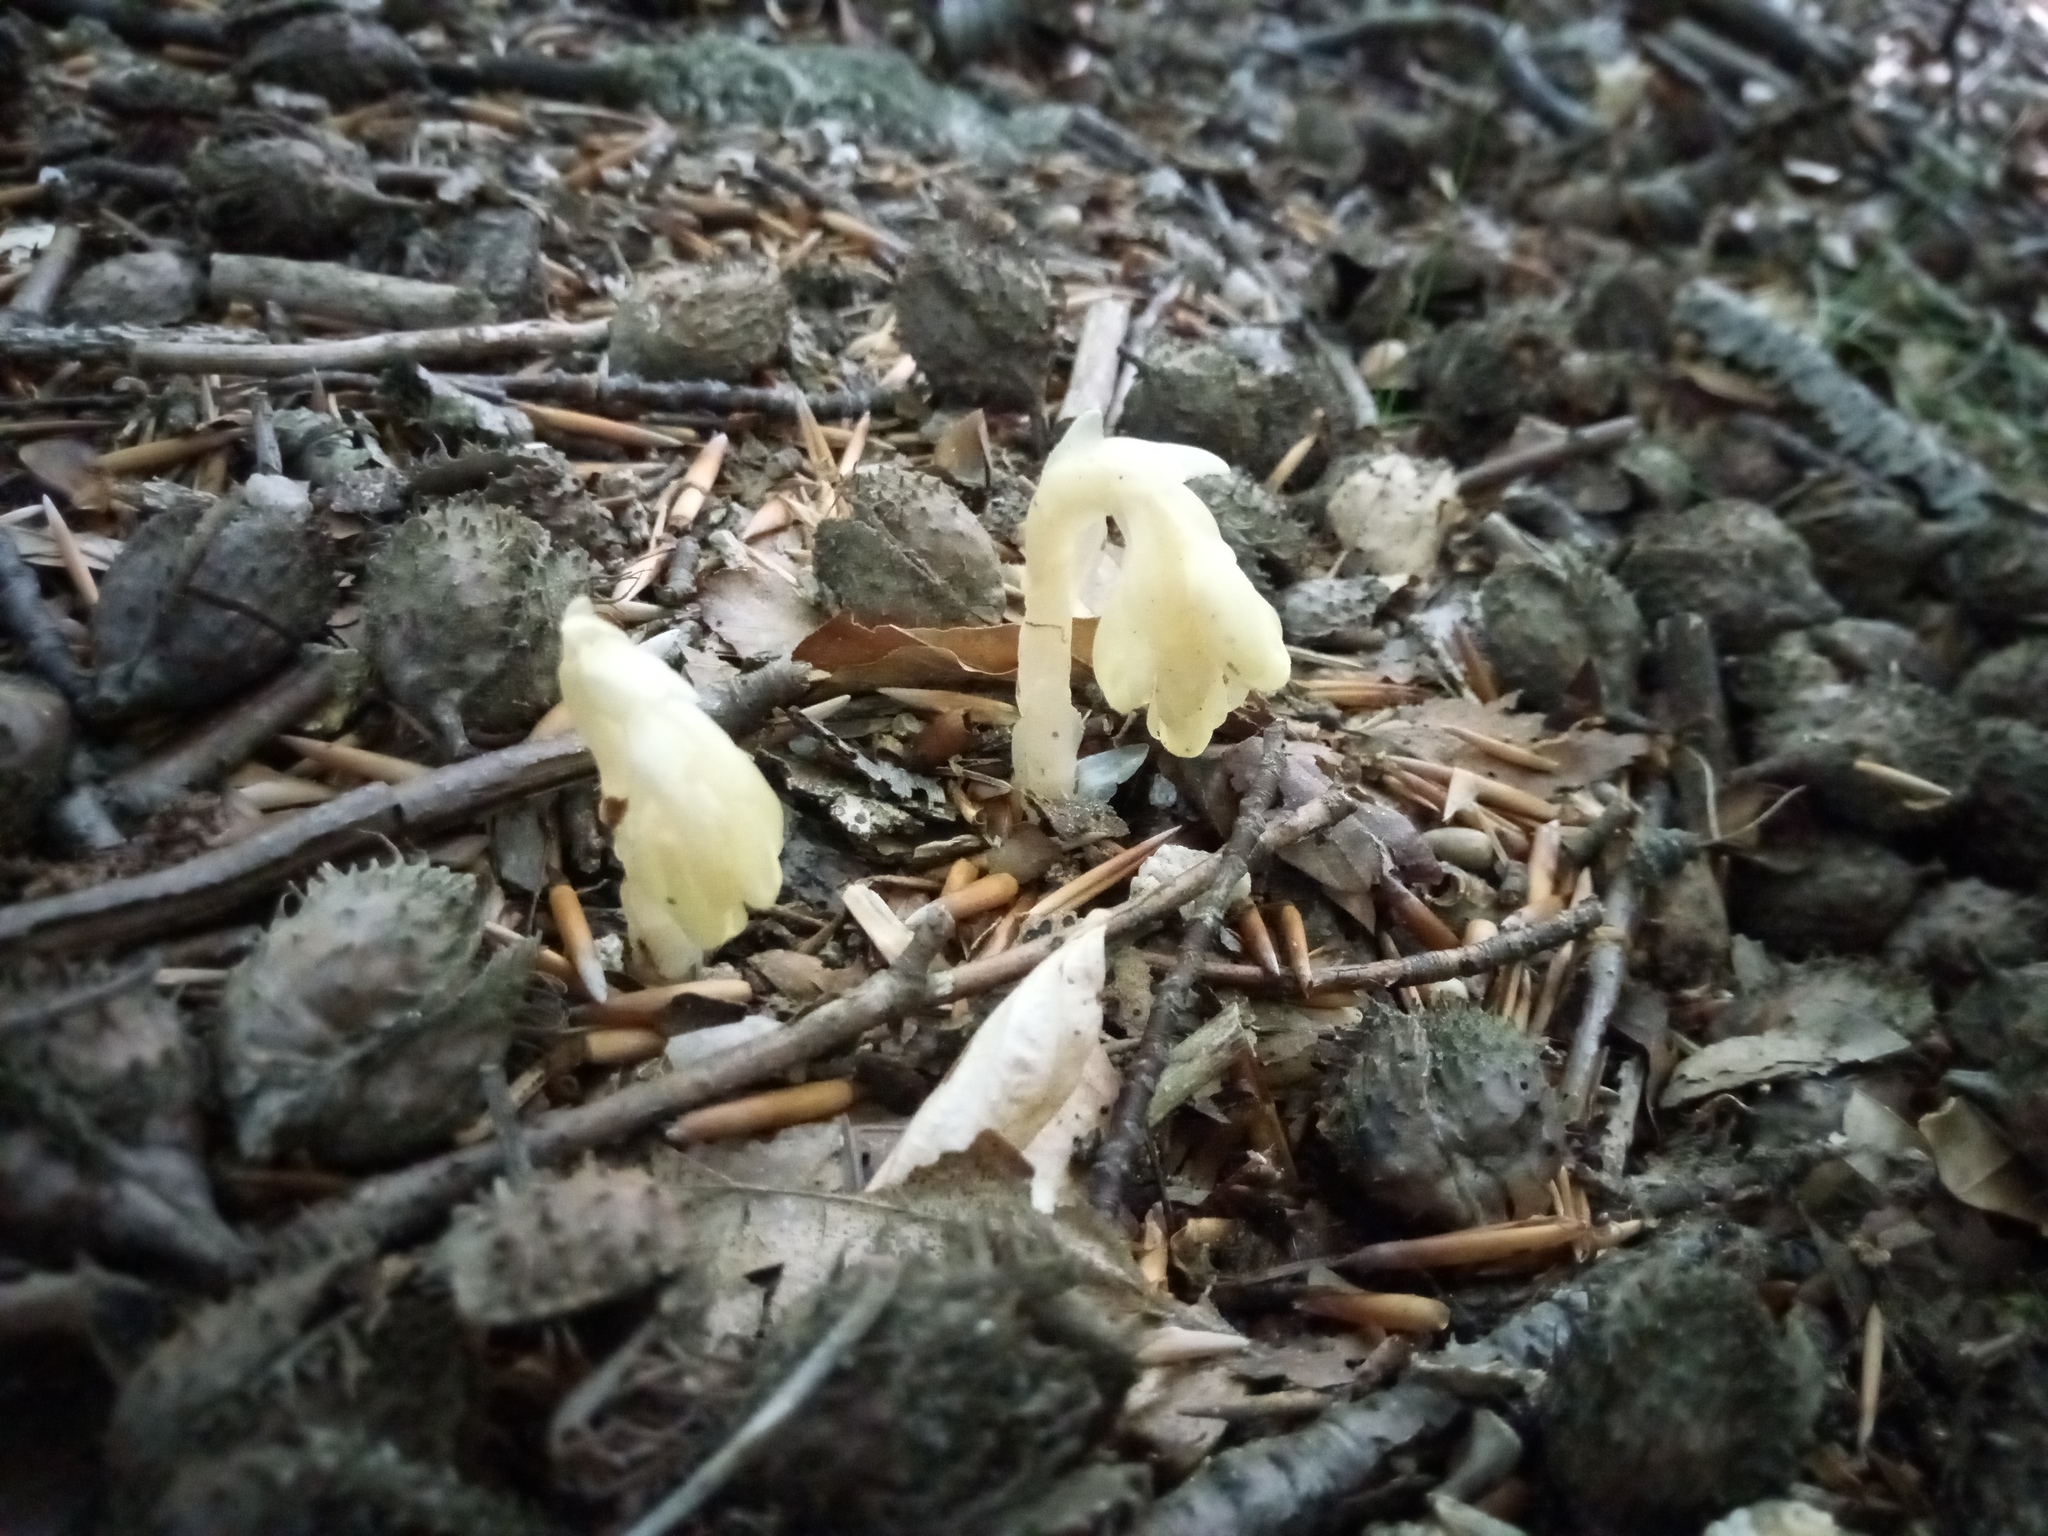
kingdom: Plantae
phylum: Tracheophyta
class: Magnoliopsida
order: Ericales
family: Ericaceae
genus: Hypopitys
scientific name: Hypopitys monotropa
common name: Yellow bird's-nest
